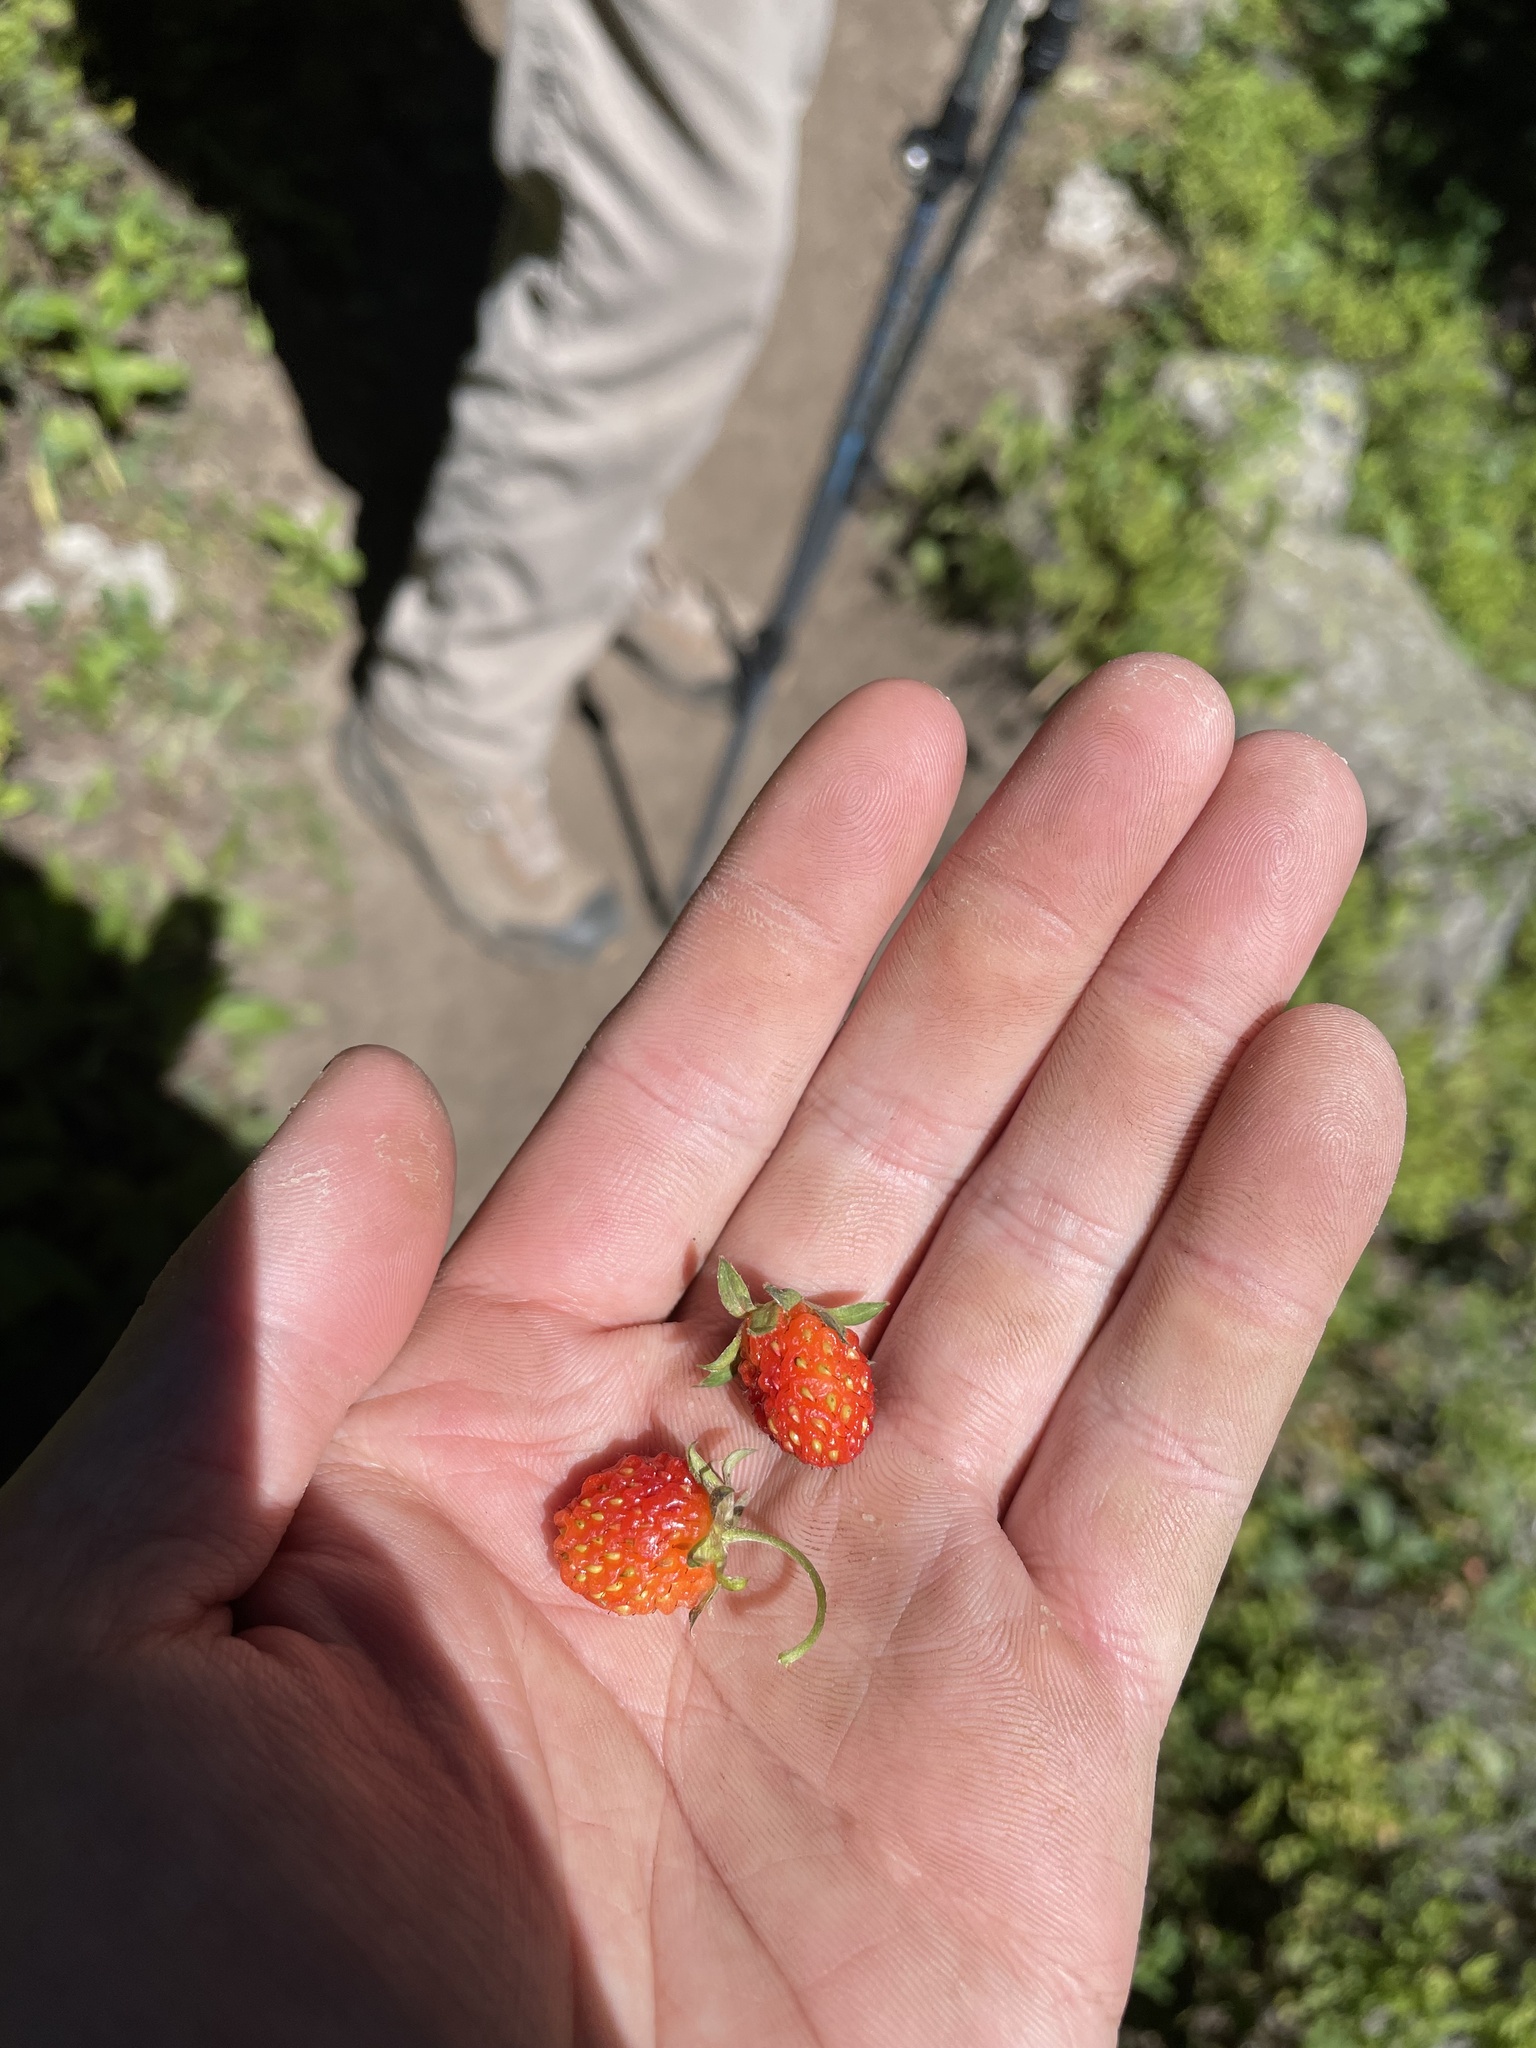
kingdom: Plantae
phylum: Tracheophyta
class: Magnoliopsida
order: Rosales
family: Rosaceae
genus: Fragaria
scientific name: Fragaria virginiana
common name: Thickleaved wild strawberry
